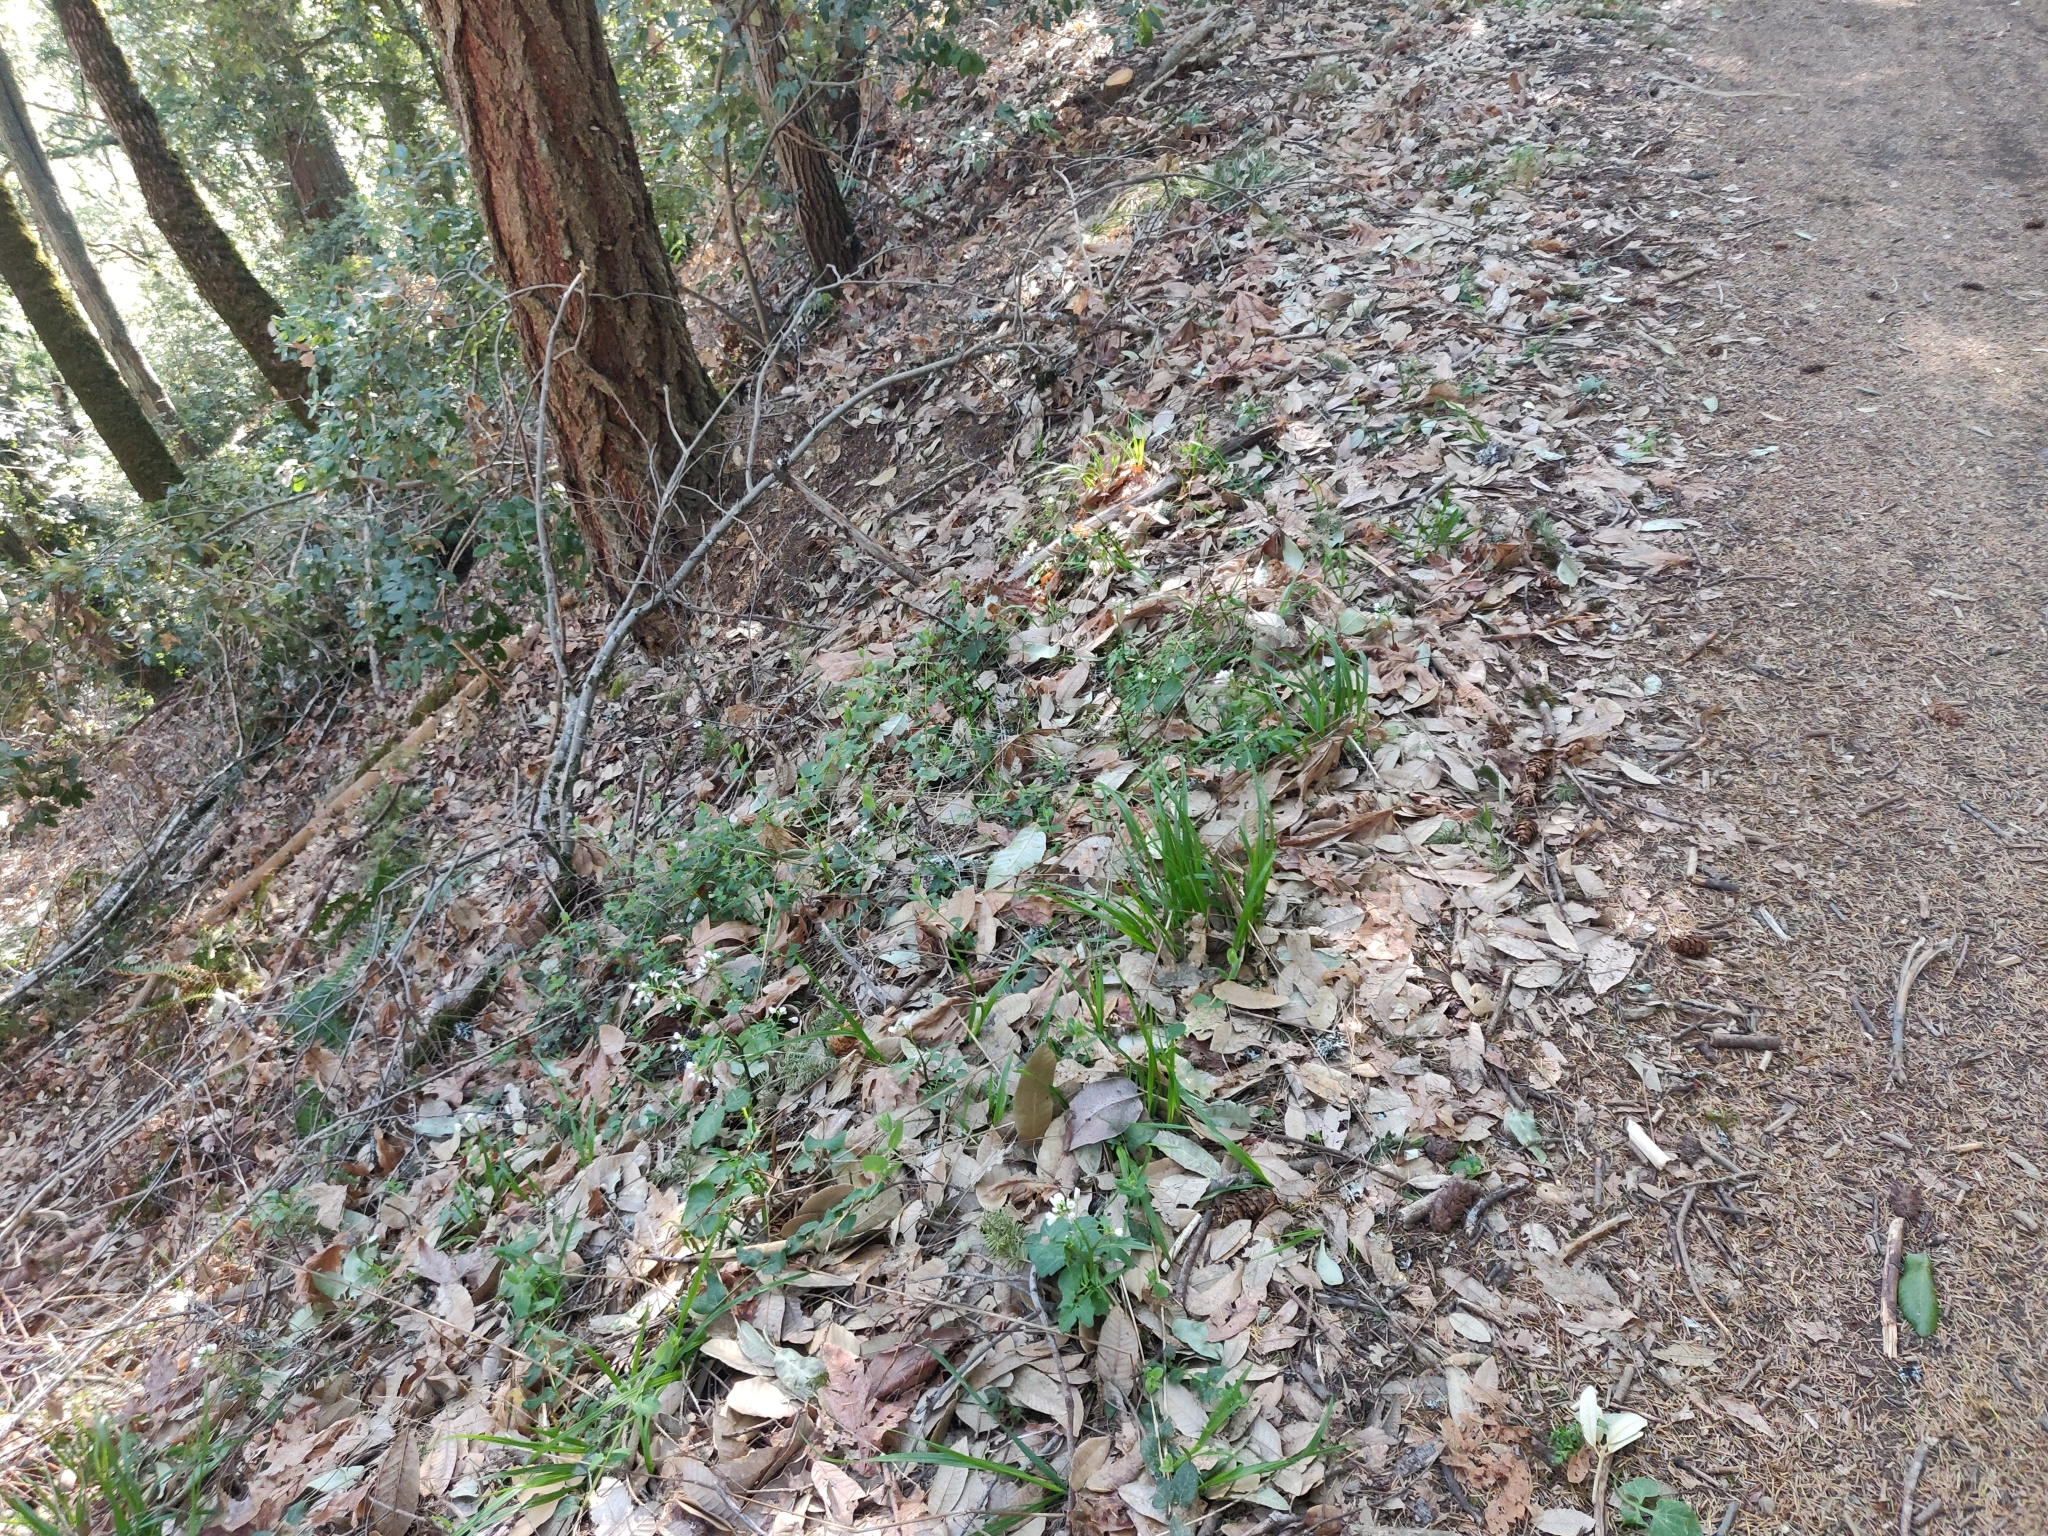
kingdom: Plantae
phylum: Tracheophyta
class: Magnoliopsida
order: Brassicales
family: Brassicaceae
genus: Cardamine
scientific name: Cardamine californica
